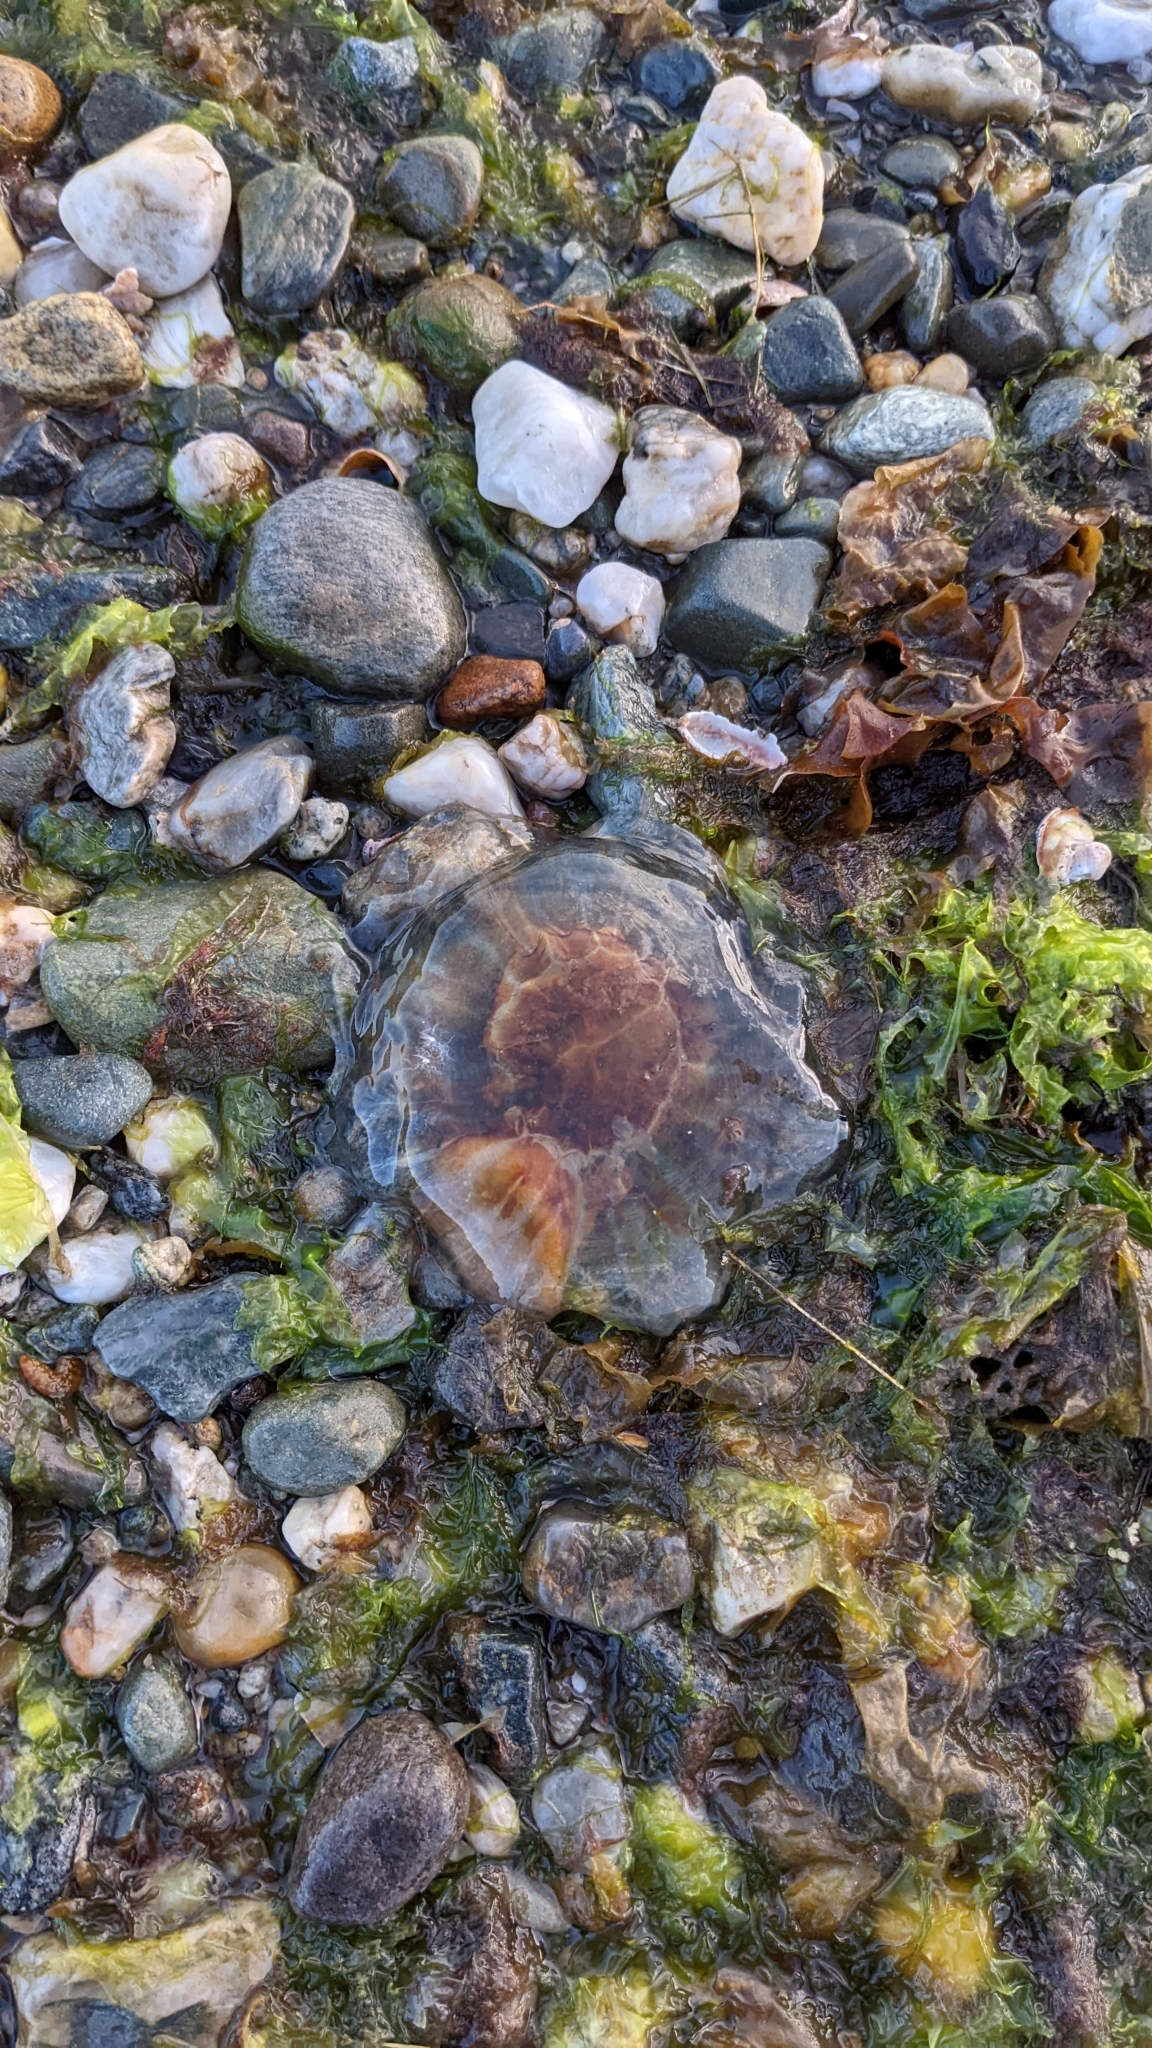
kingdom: Animalia
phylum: Cnidaria
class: Scyphozoa
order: Semaeostomeae
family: Cyaneidae
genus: Cyanea
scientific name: Cyanea fulva
